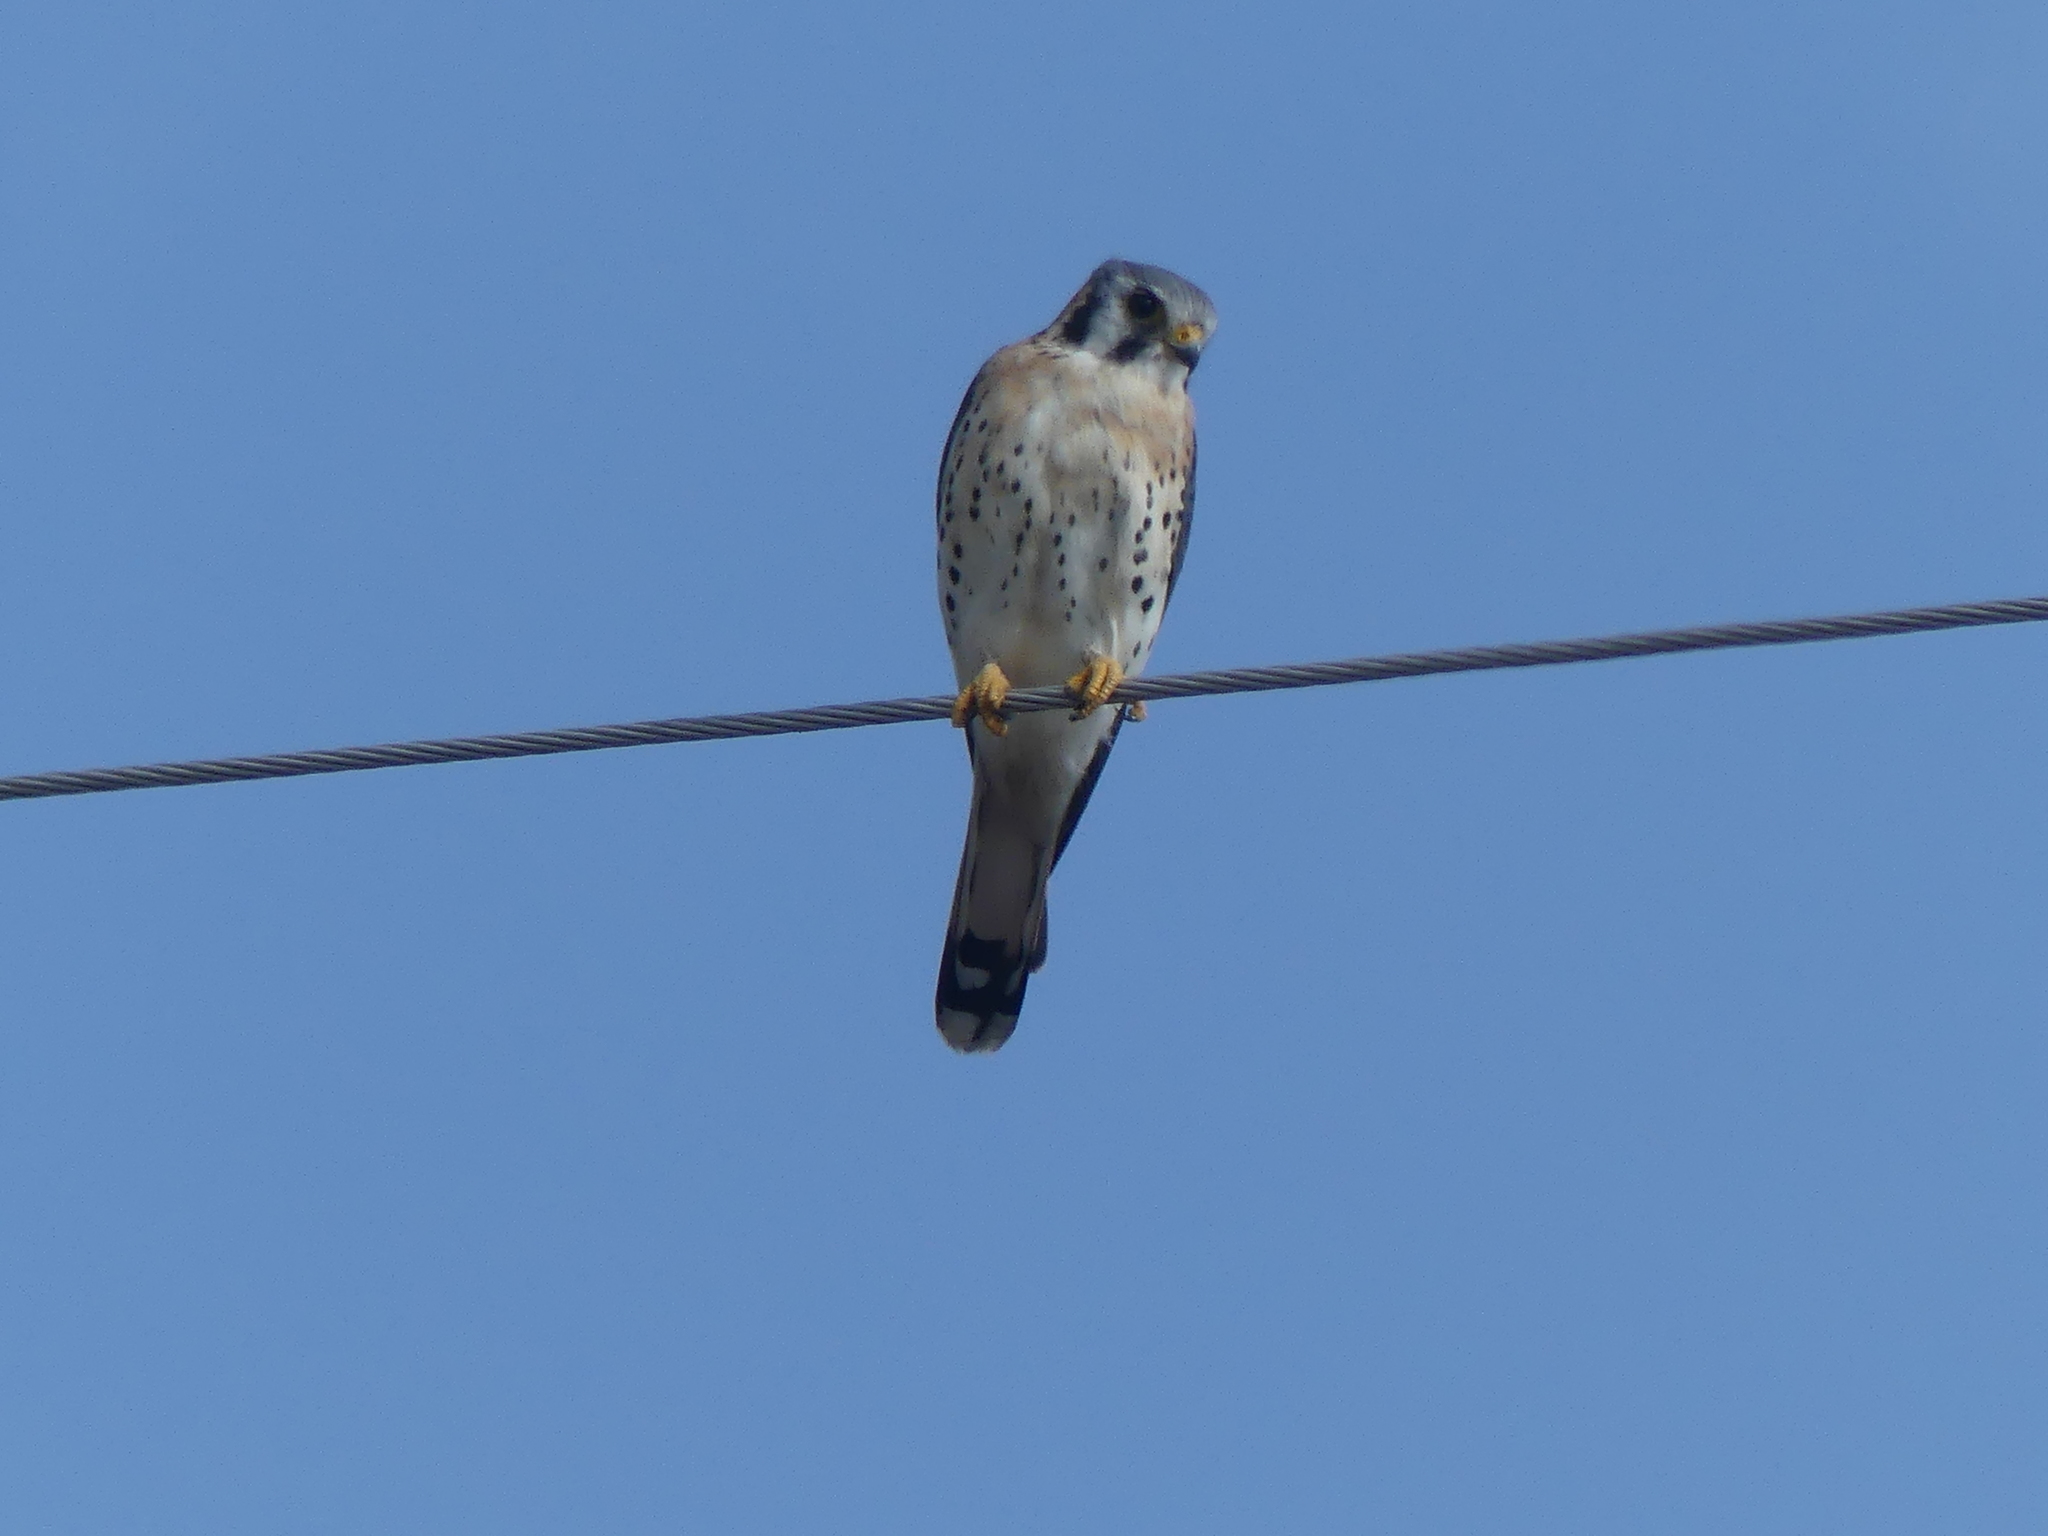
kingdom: Animalia
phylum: Chordata
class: Aves
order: Falconiformes
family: Falconidae
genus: Falco
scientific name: Falco sparverius
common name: American kestrel
